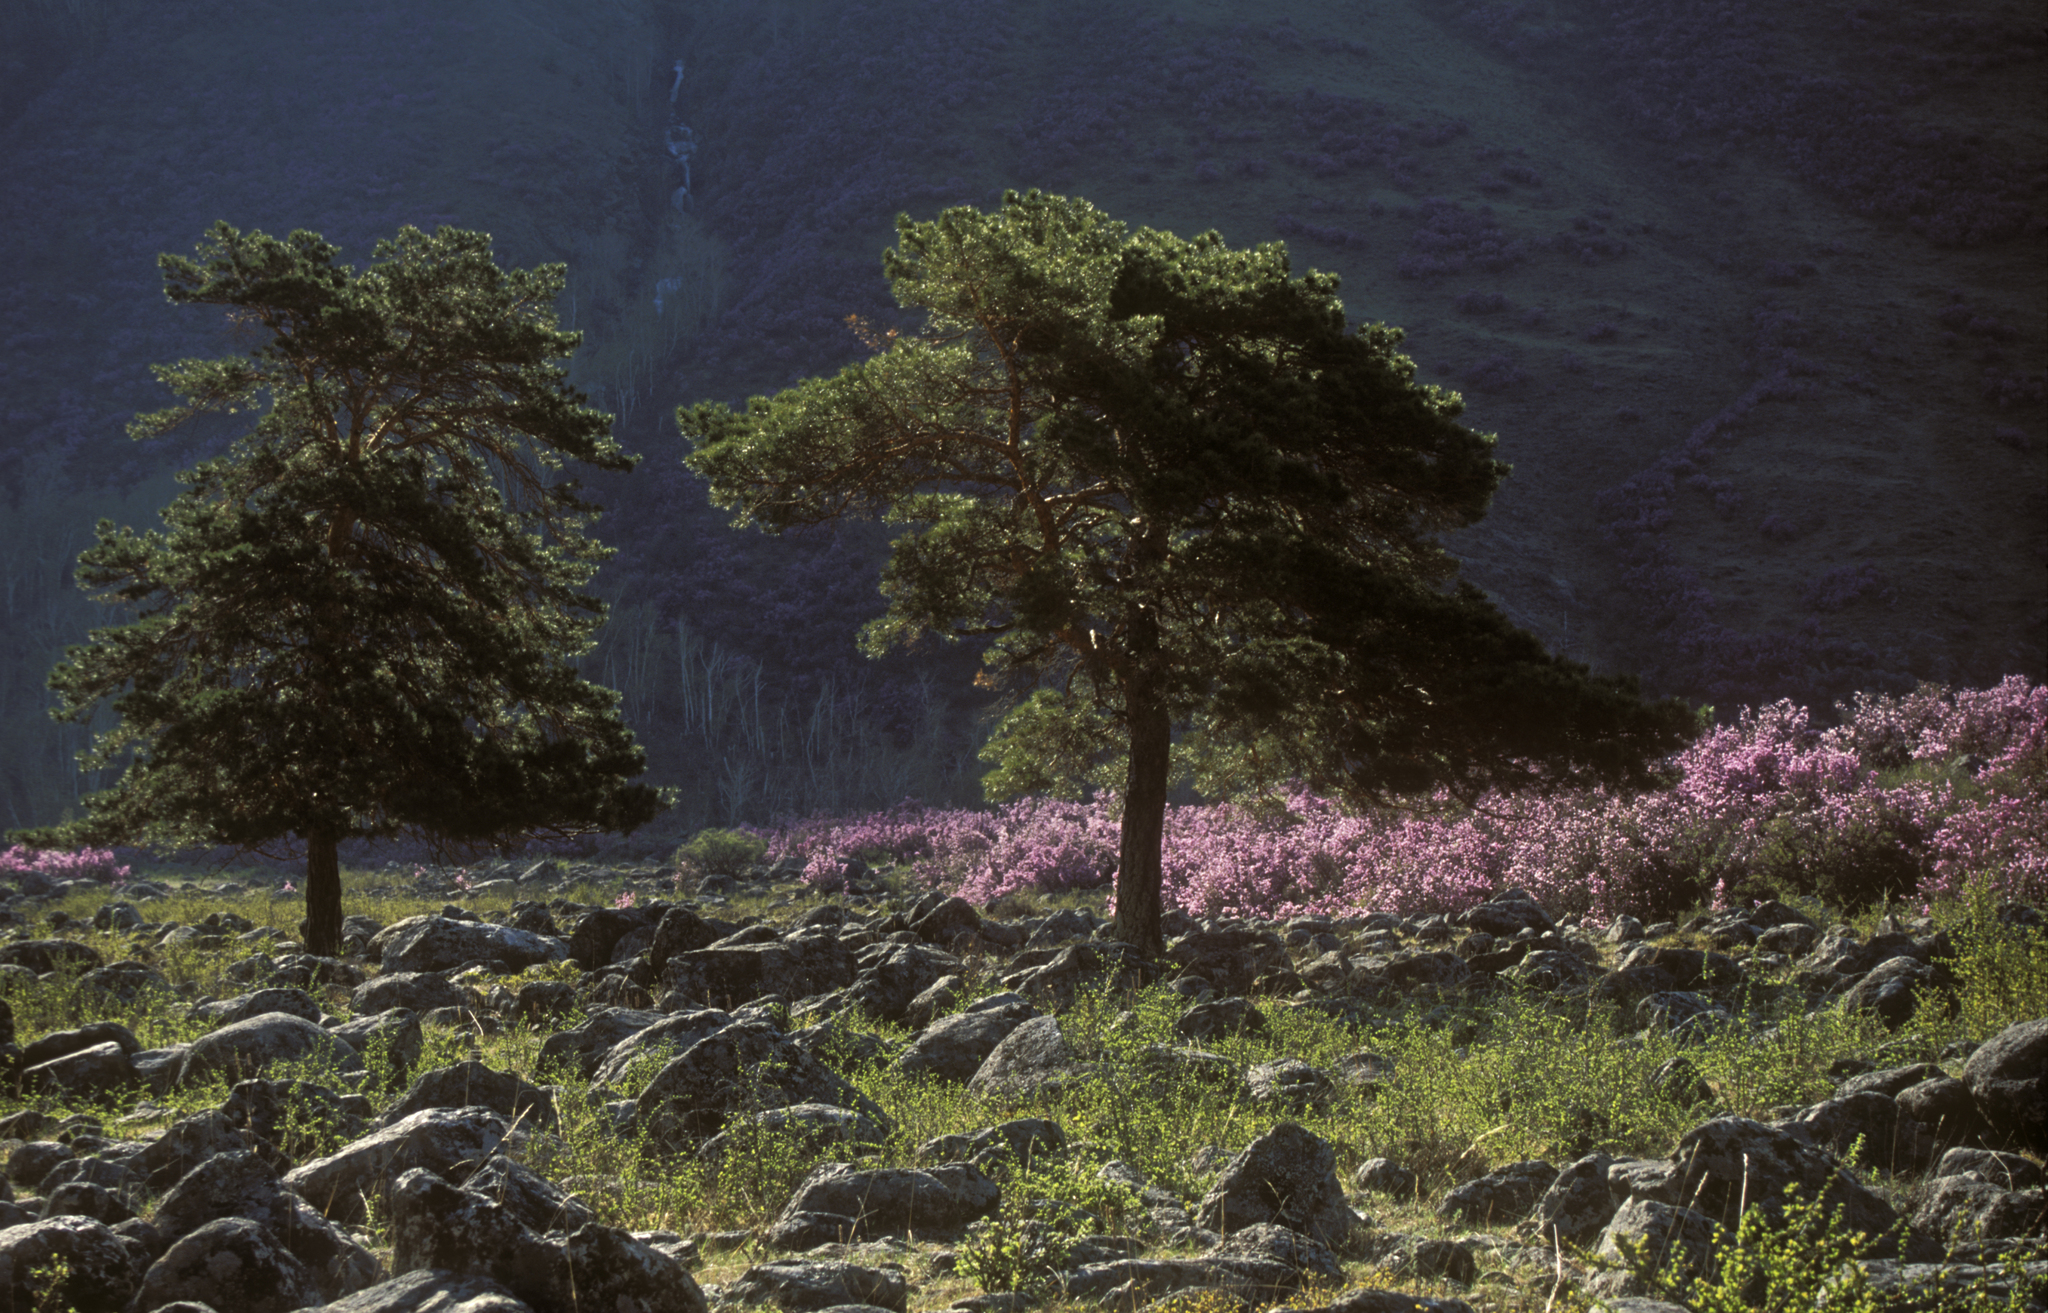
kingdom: Plantae
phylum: Tracheophyta
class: Magnoliopsida
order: Ericales
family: Ericaceae
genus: Rhododendron
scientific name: Rhododendron dauricum
